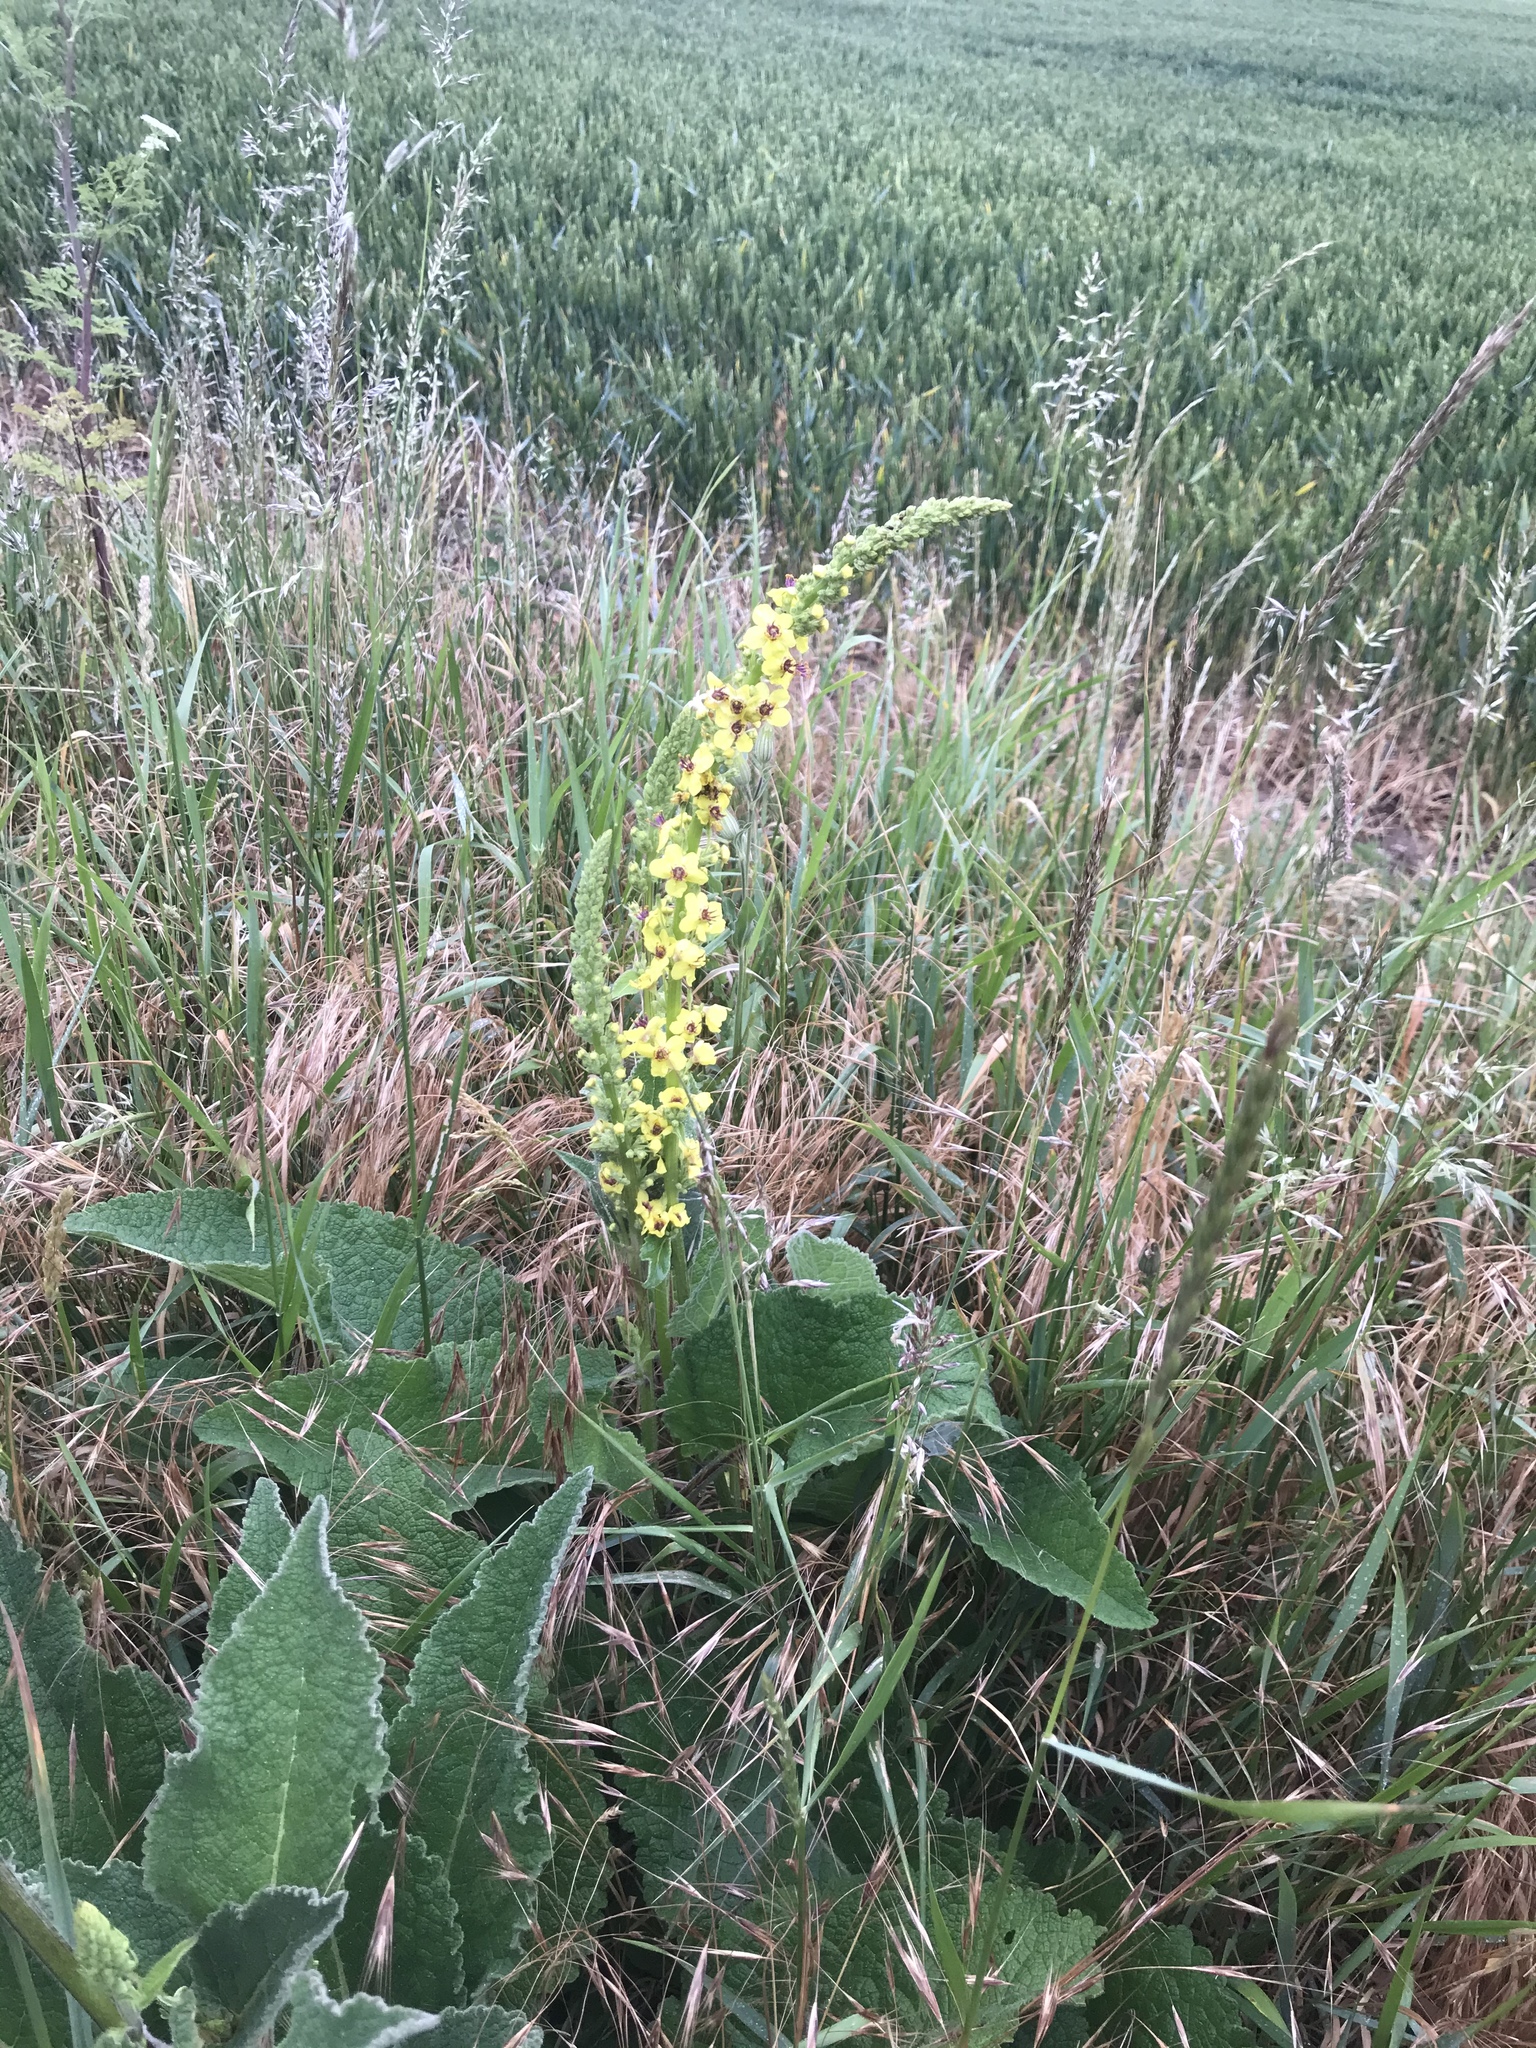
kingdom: Plantae
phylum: Tracheophyta
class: Magnoliopsida
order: Lamiales
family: Scrophulariaceae
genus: Verbascum
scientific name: Verbascum nigrum
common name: Dark mullein
